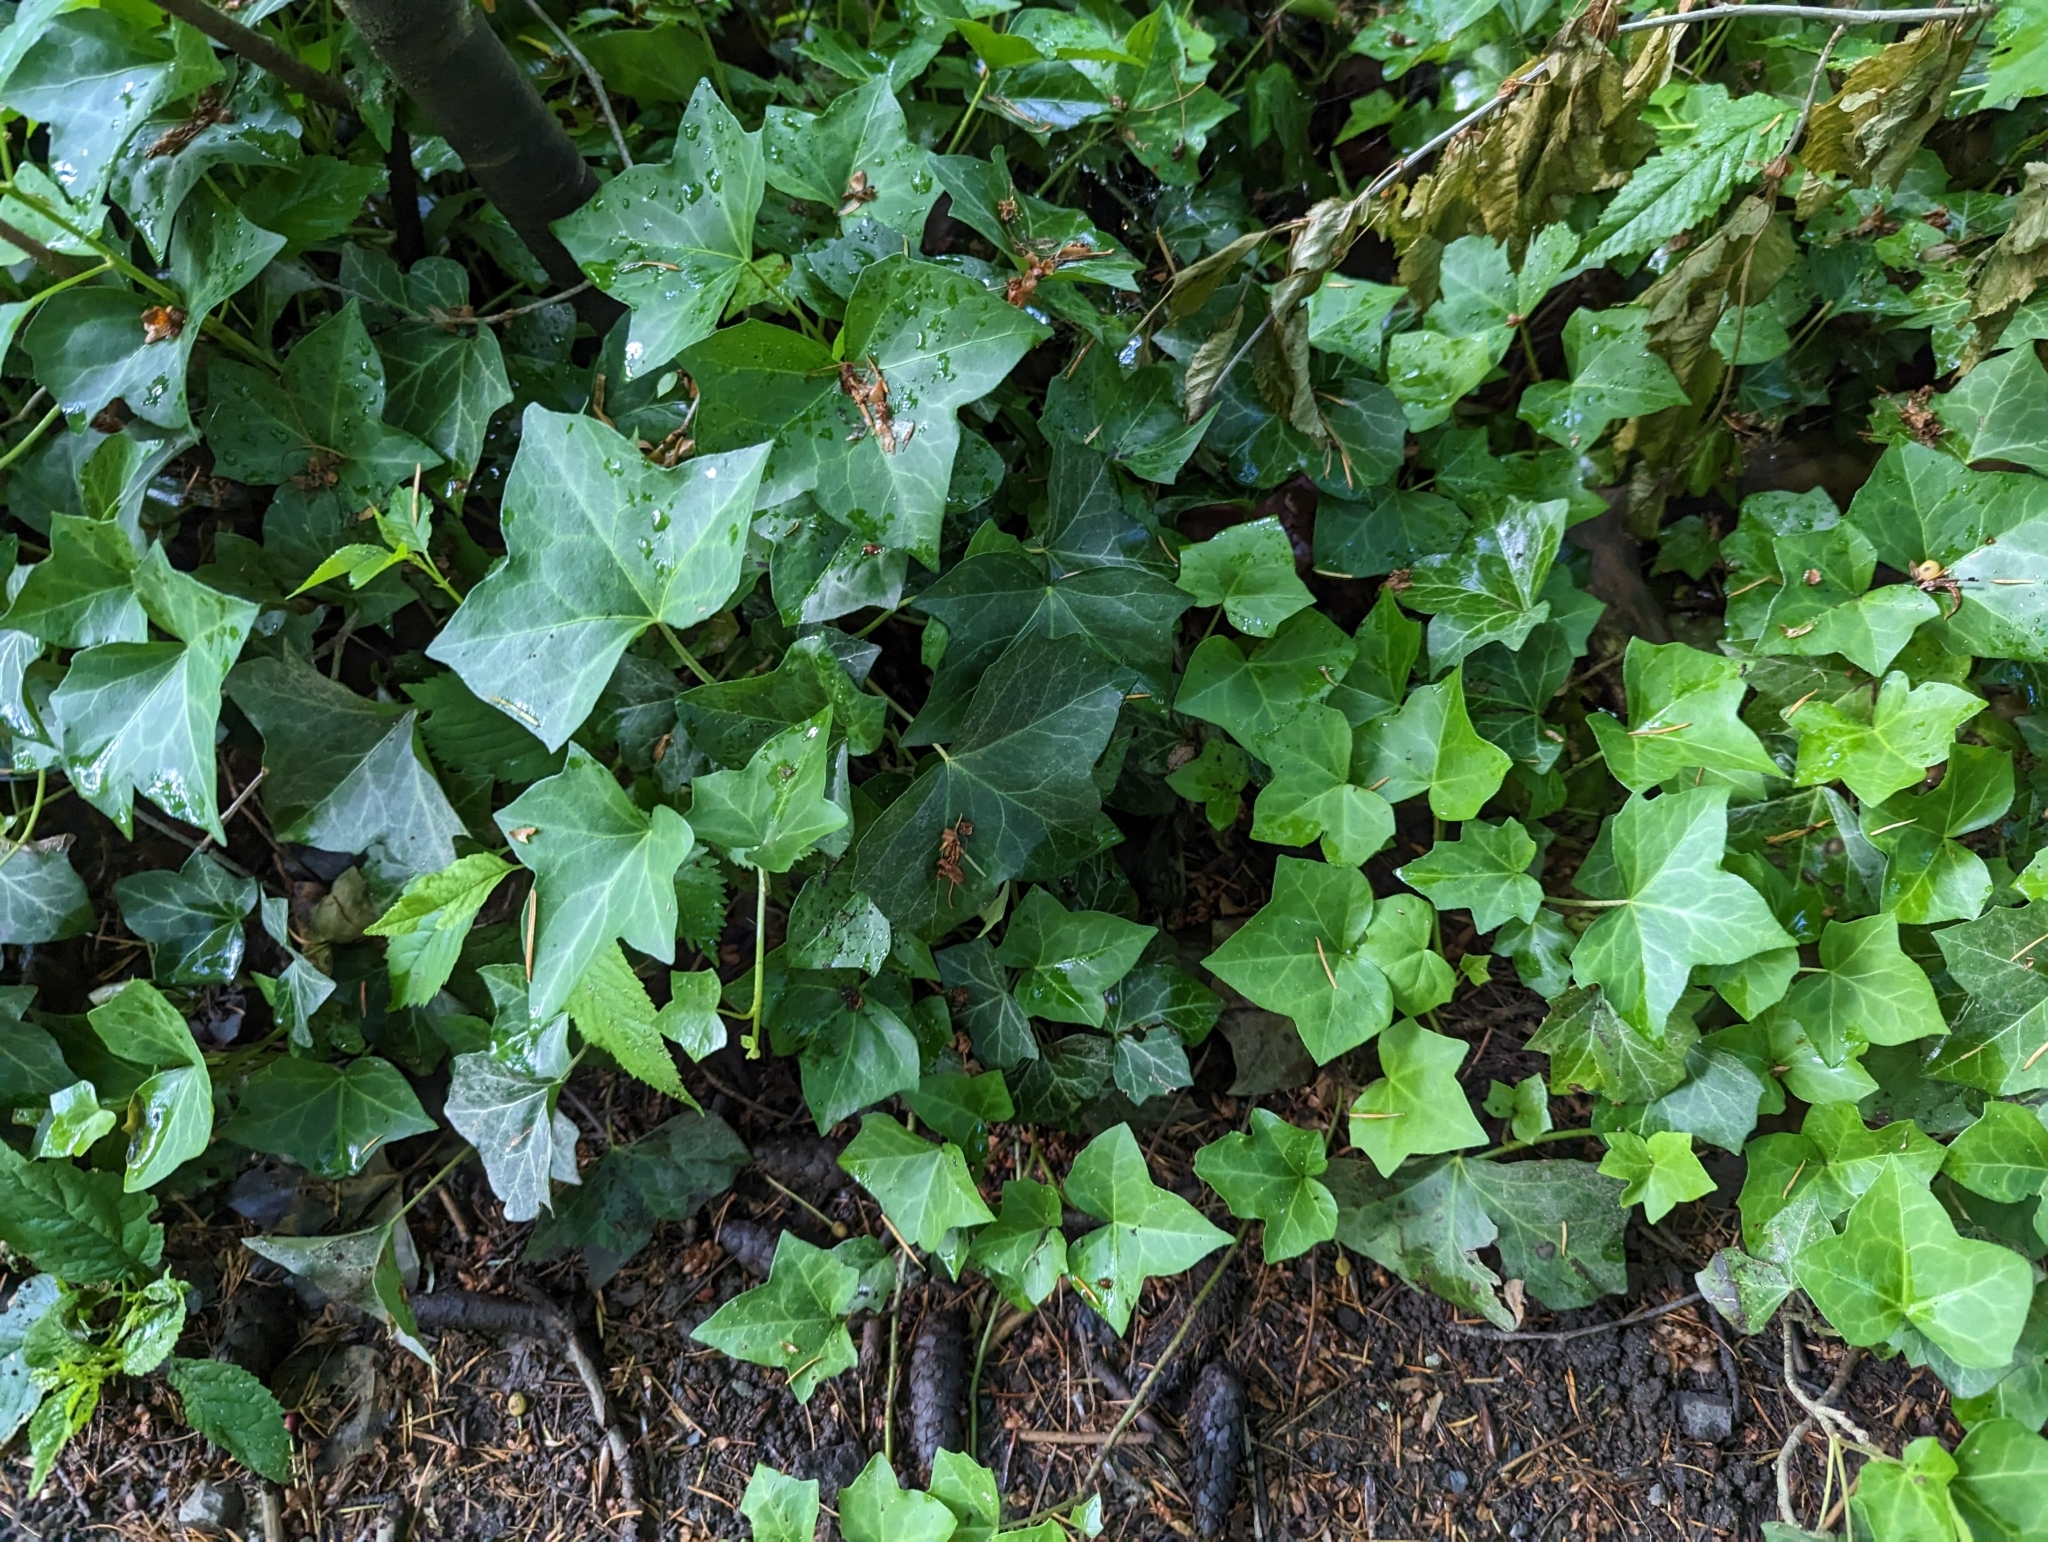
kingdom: Plantae
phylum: Tracheophyta
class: Magnoliopsida
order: Apiales
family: Araliaceae
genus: Hedera
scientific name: Hedera helix
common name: Ivy
